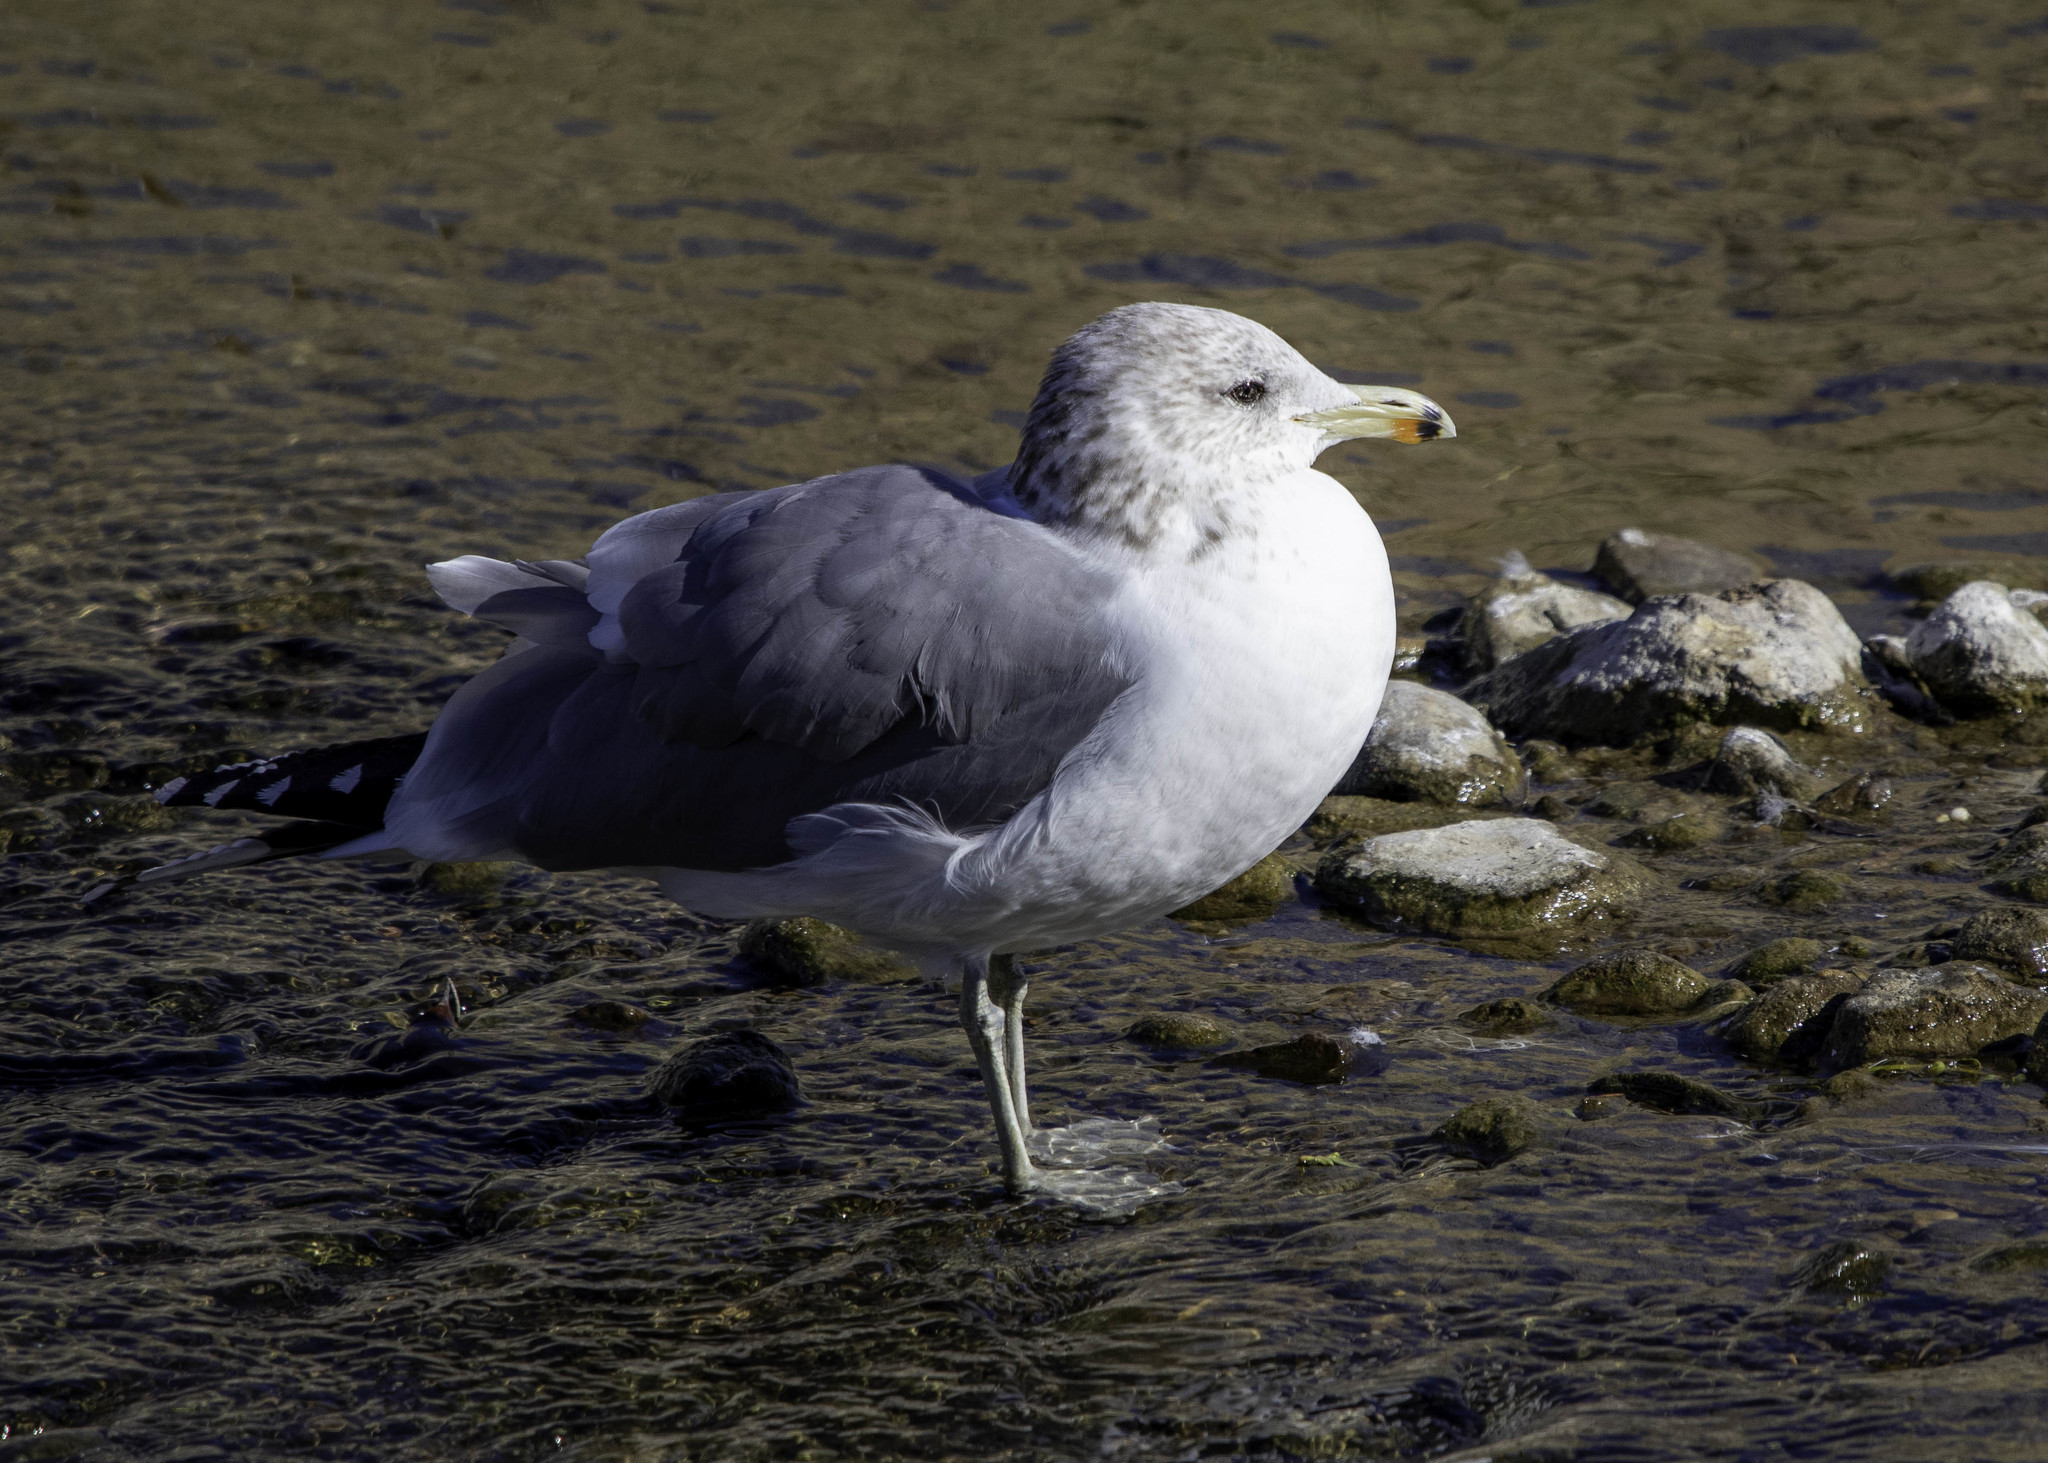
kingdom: Animalia
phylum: Chordata
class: Aves
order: Charadriiformes
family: Laridae
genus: Larus
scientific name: Larus californicus
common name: California gull
